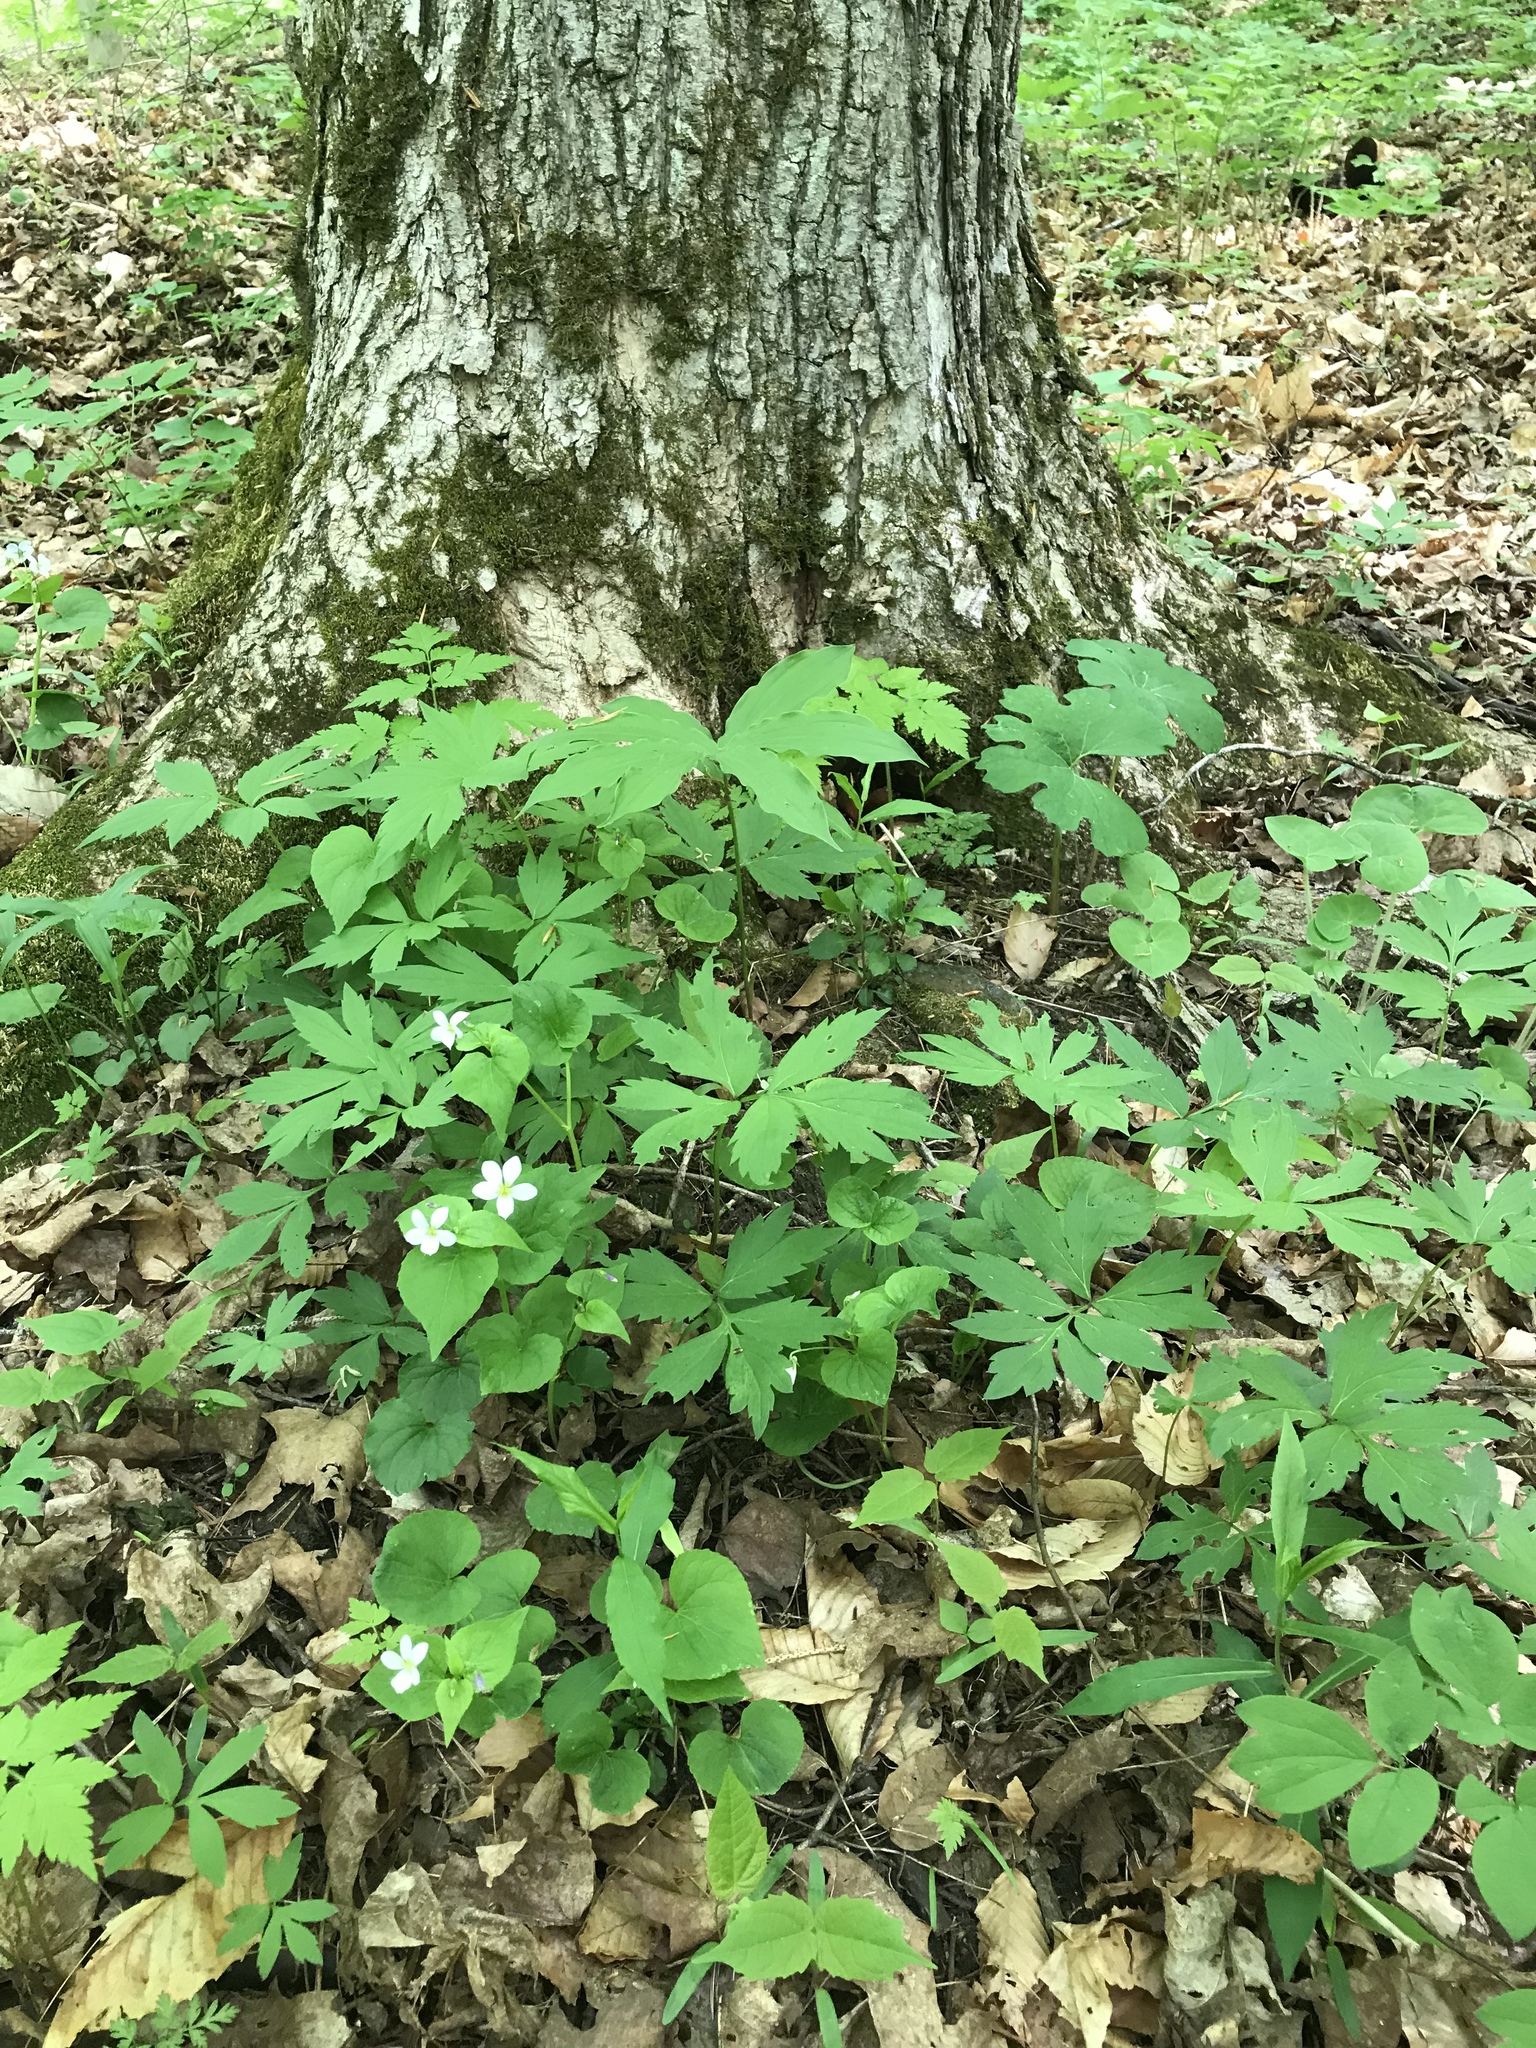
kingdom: Plantae
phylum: Tracheophyta
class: Magnoliopsida
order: Malpighiales
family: Violaceae
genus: Viola
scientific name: Viola canadensis
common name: Canada violet
